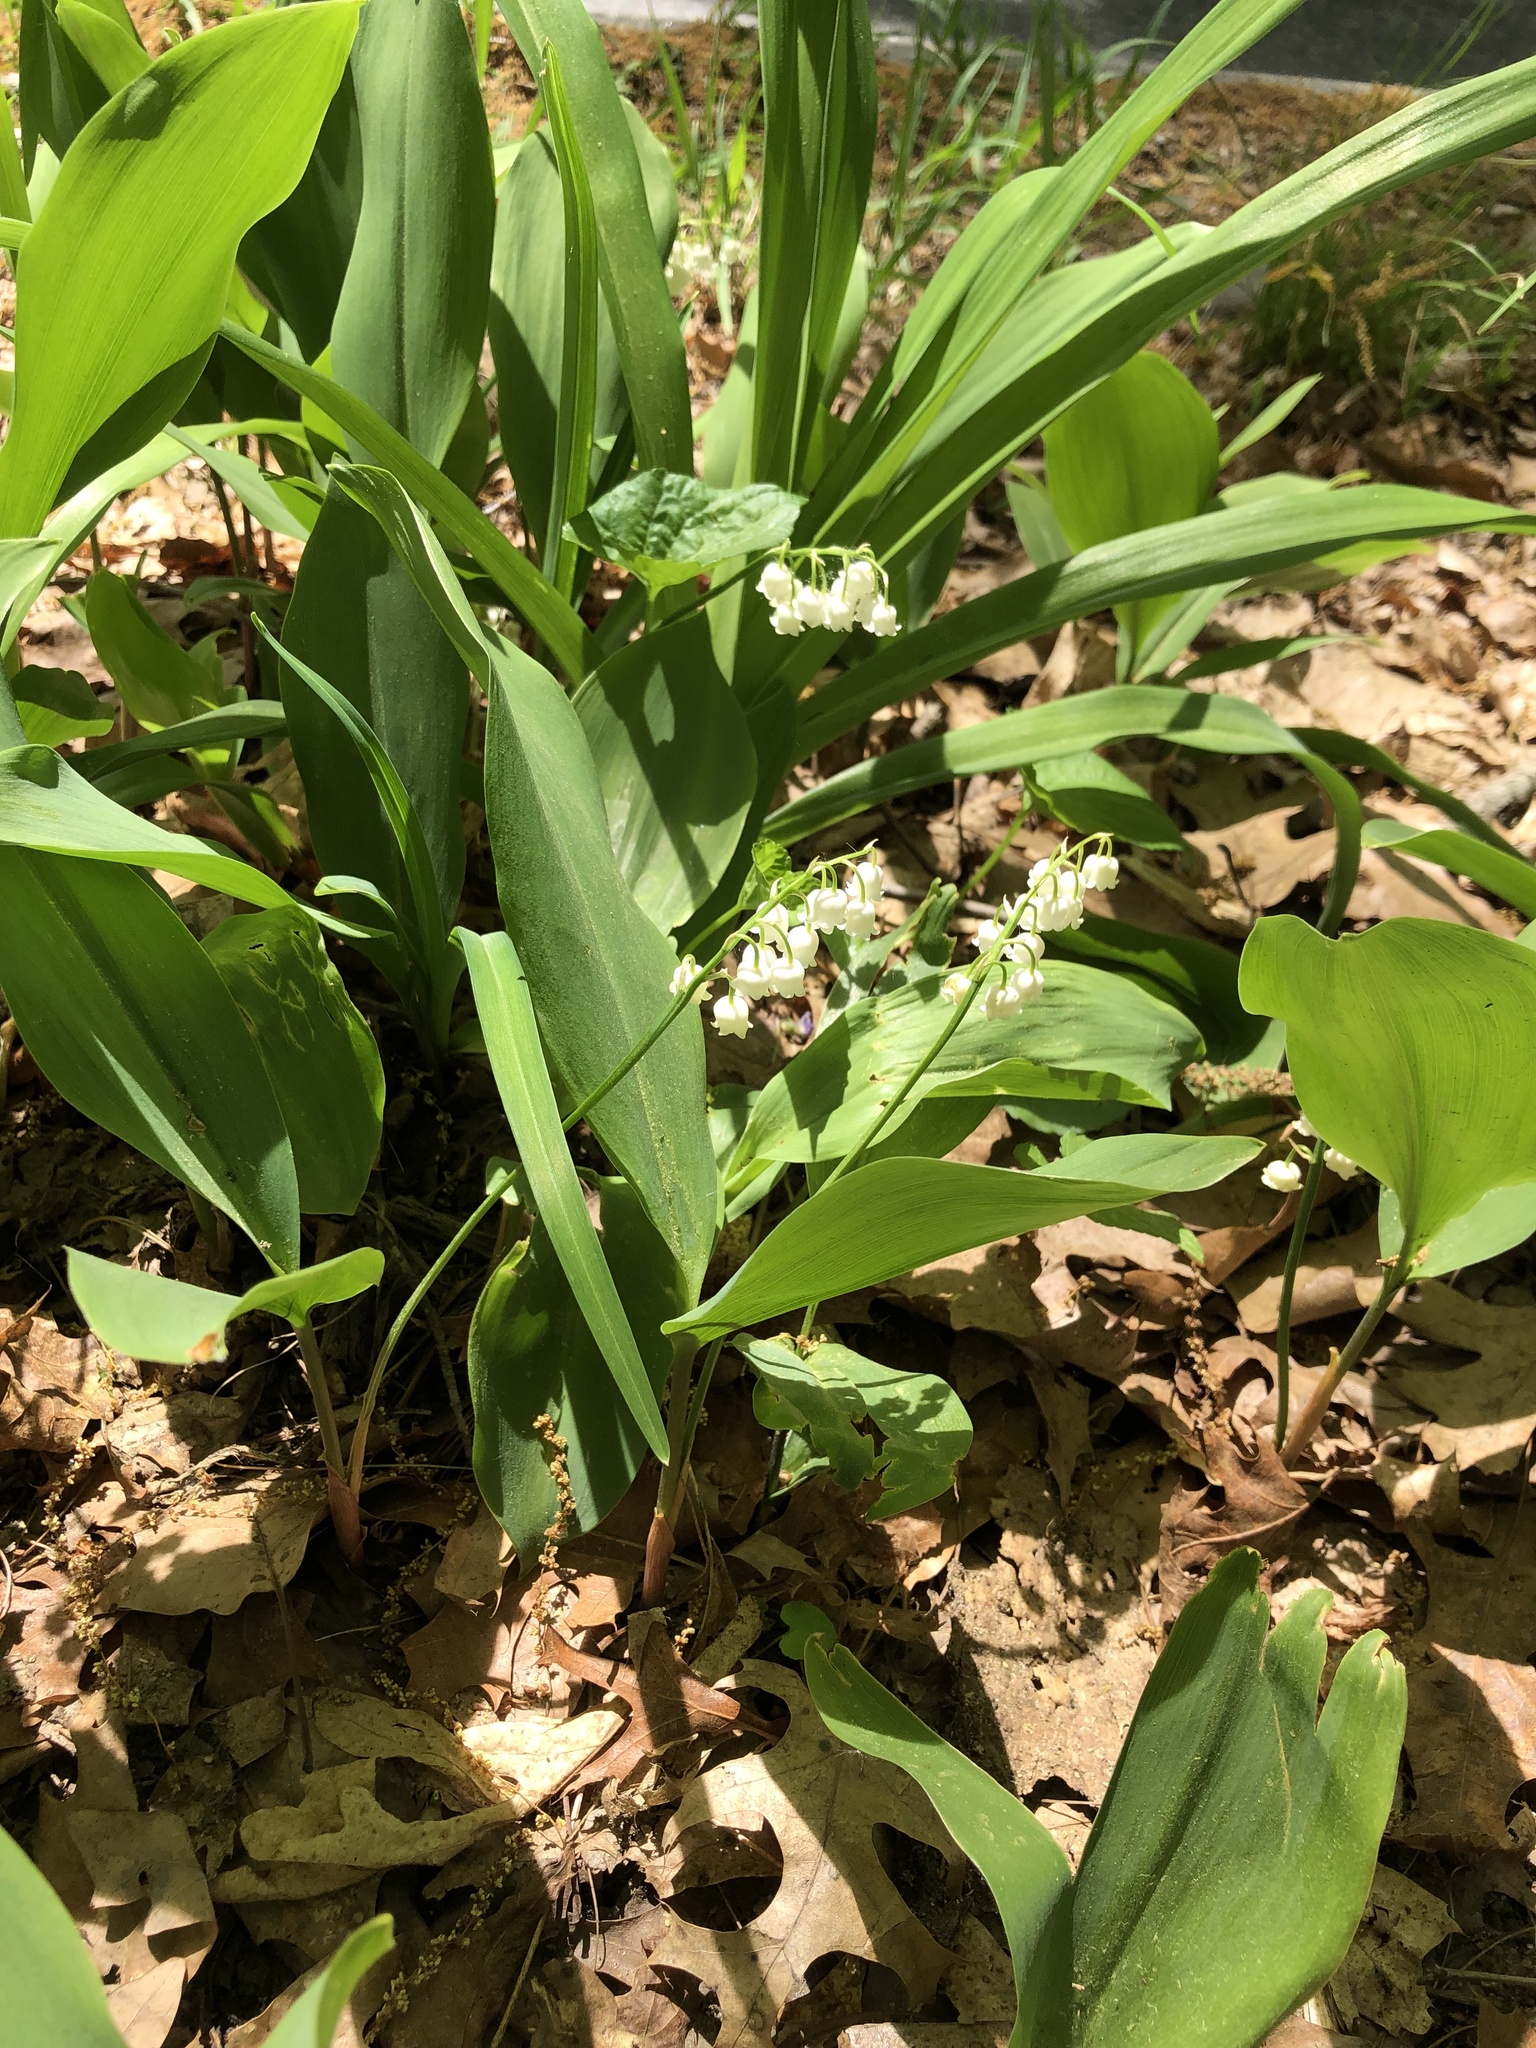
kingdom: Plantae
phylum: Tracheophyta
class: Liliopsida
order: Asparagales
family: Asparagaceae
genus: Convallaria
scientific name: Convallaria majalis
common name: Lily-of-the-valley
